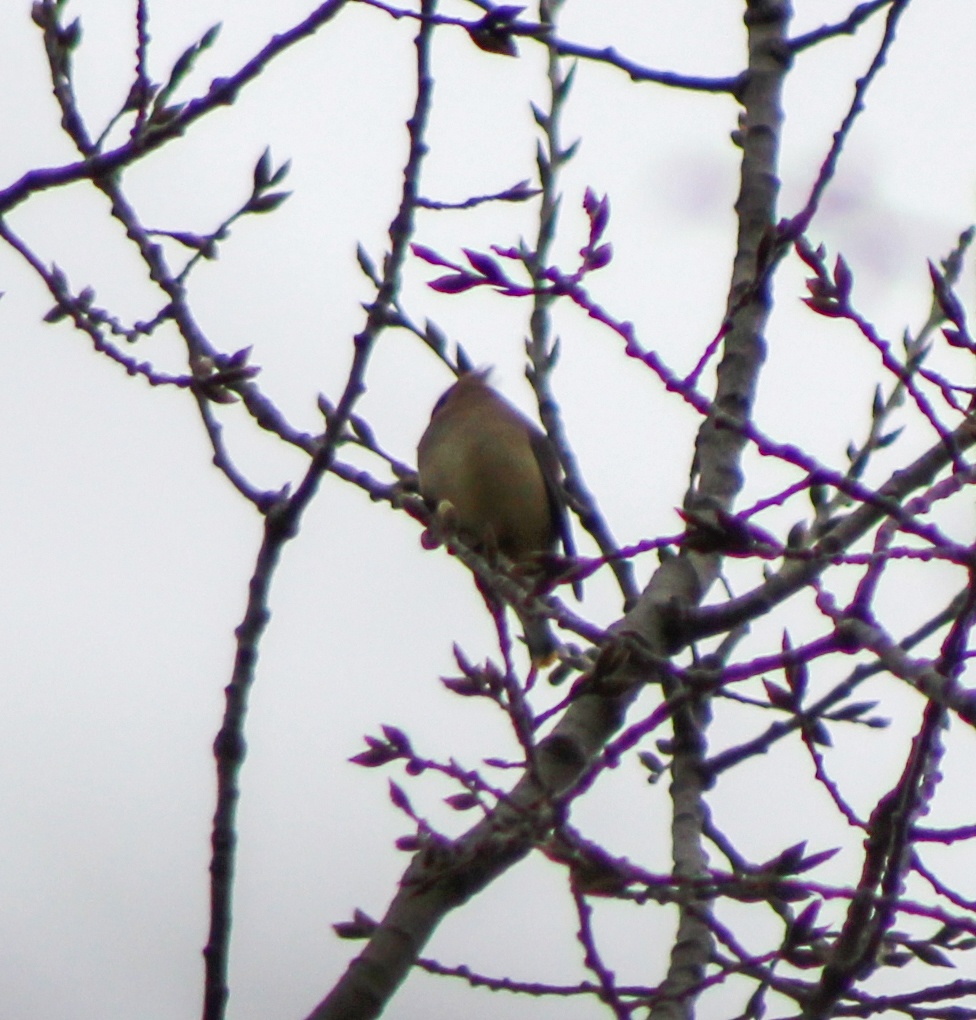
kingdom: Animalia
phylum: Chordata
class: Aves
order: Passeriformes
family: Bombycillidae
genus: Bombycilla
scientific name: Bombycilla cedrorum
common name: Cedar waxwing
